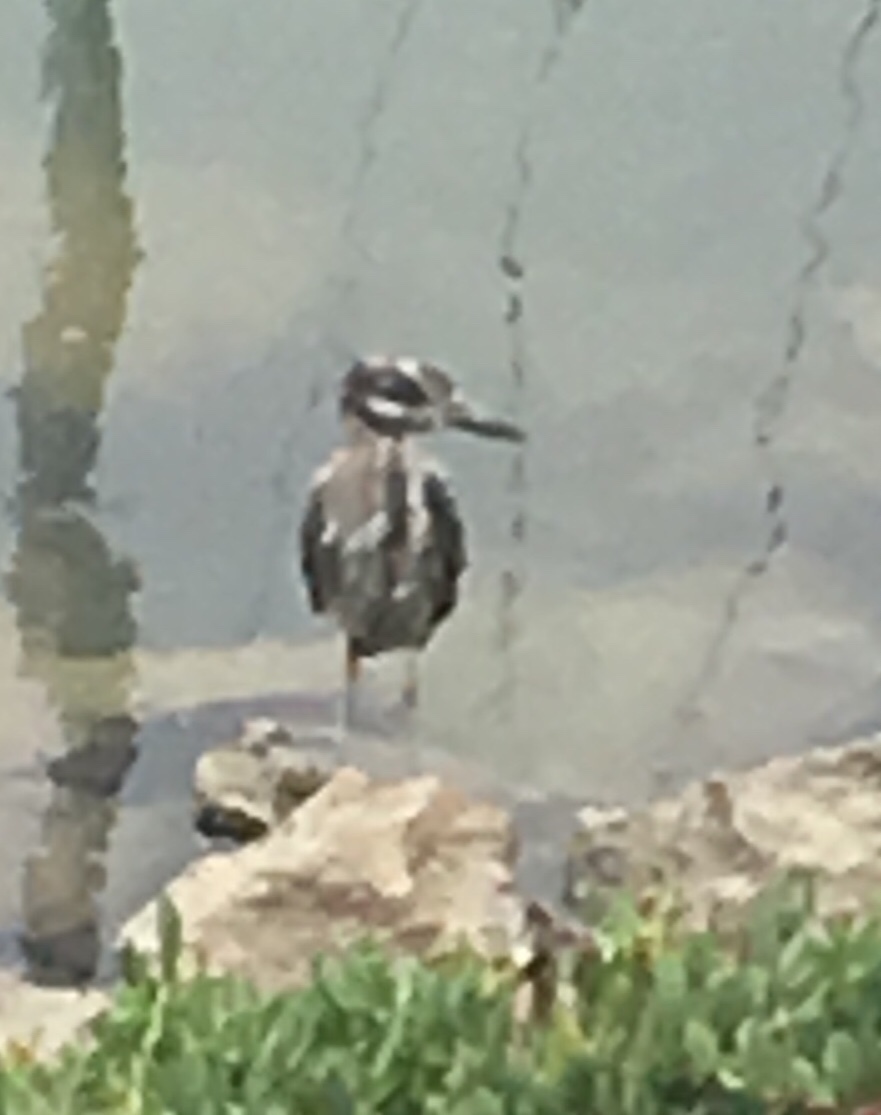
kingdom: Animalia
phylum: Chordata
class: Aves
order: Pelecaniformes
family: Ardeidae
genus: Nyctanassa
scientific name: Nyctanassa violacea
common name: Yellow-crowned night heron
